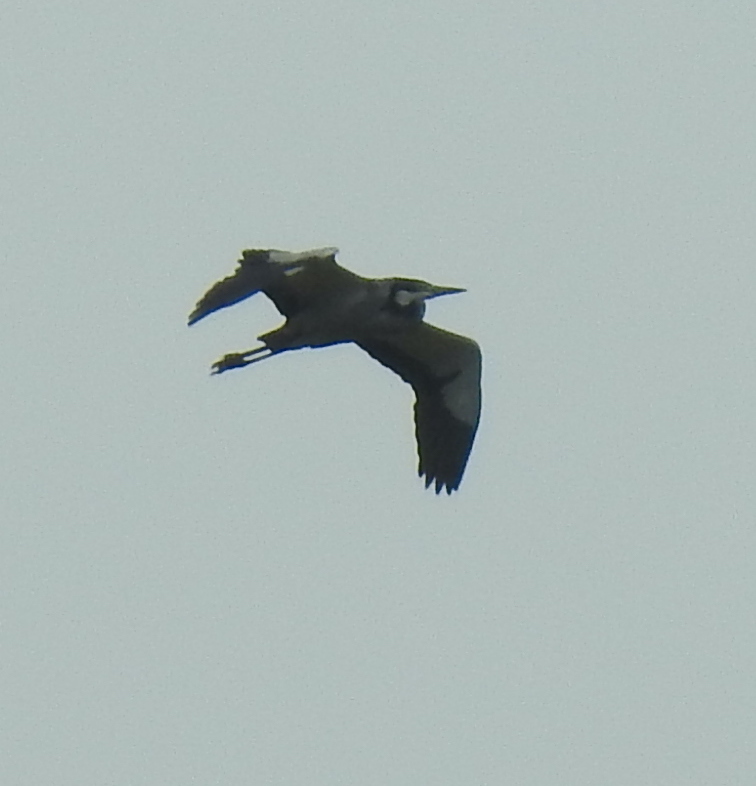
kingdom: Animalia
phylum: Chordata
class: Aves
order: Pelecaniformes
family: Ardeidae
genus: Ardea
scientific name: Ardea melanocephala
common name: Black-headed heron
